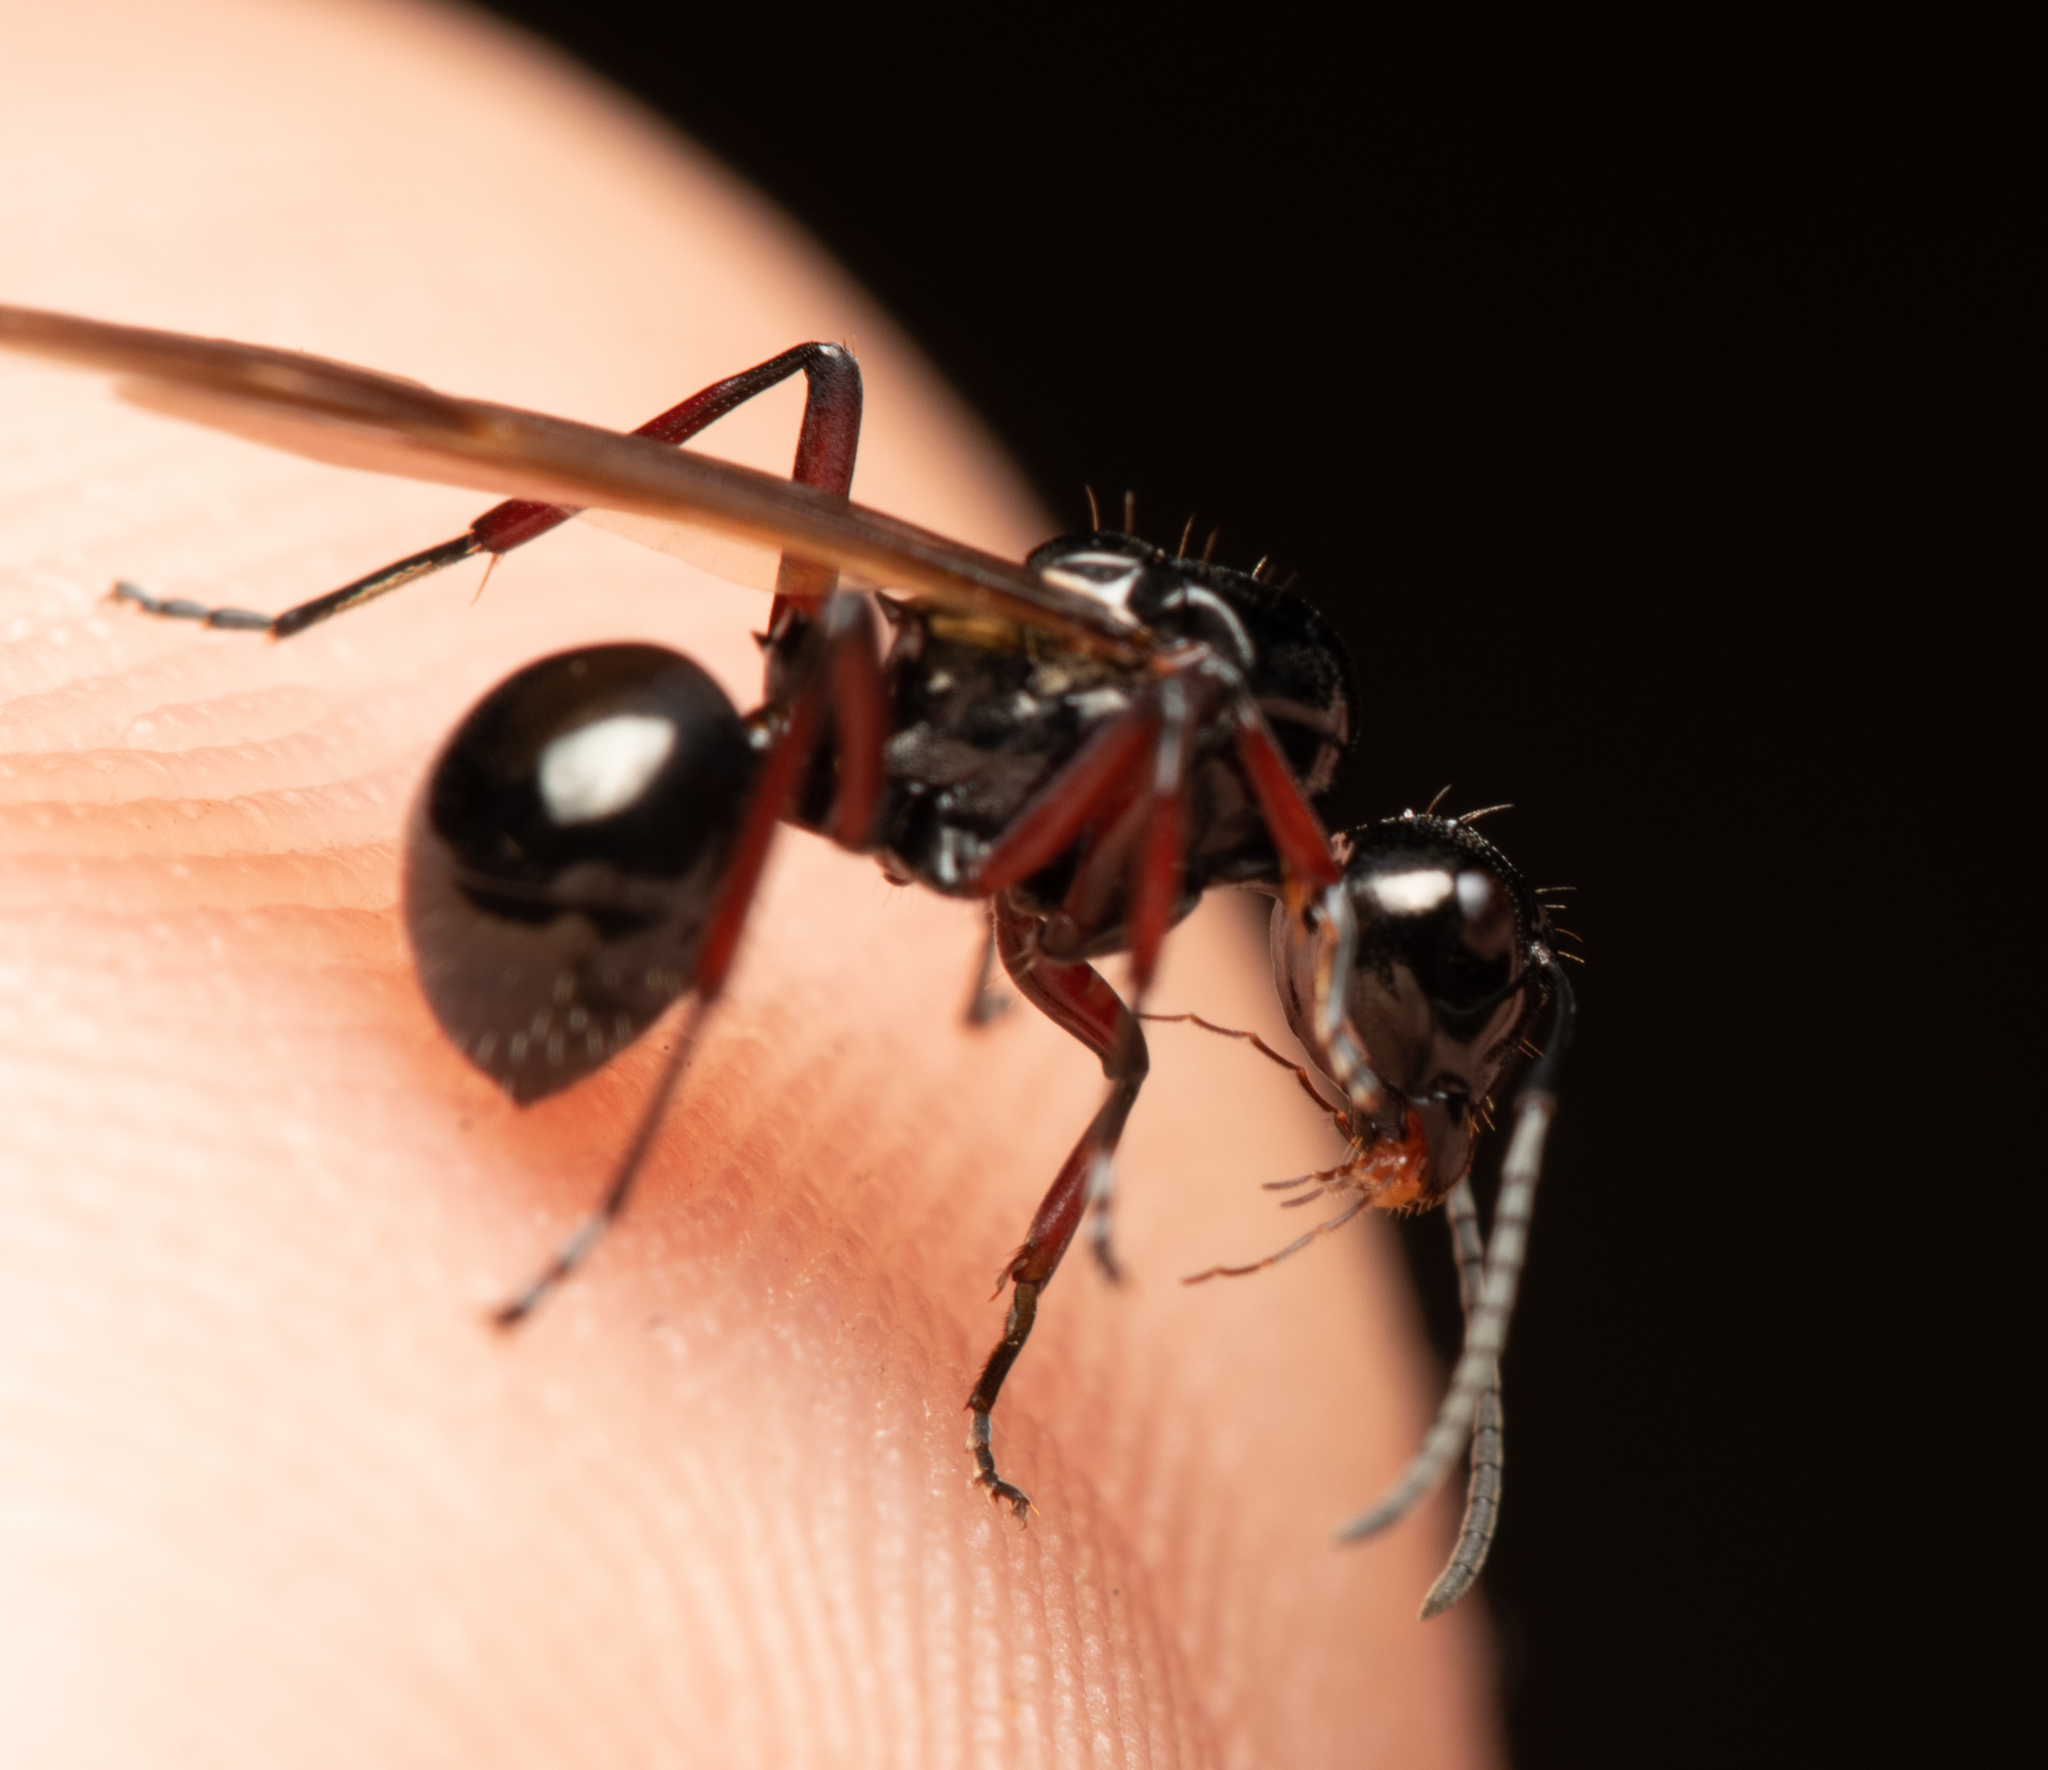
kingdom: Animalia
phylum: Arthropoda
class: Insecta
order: Hymenoptera
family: Formicidae
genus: Polyrhachis
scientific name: Polyrhachis australis
